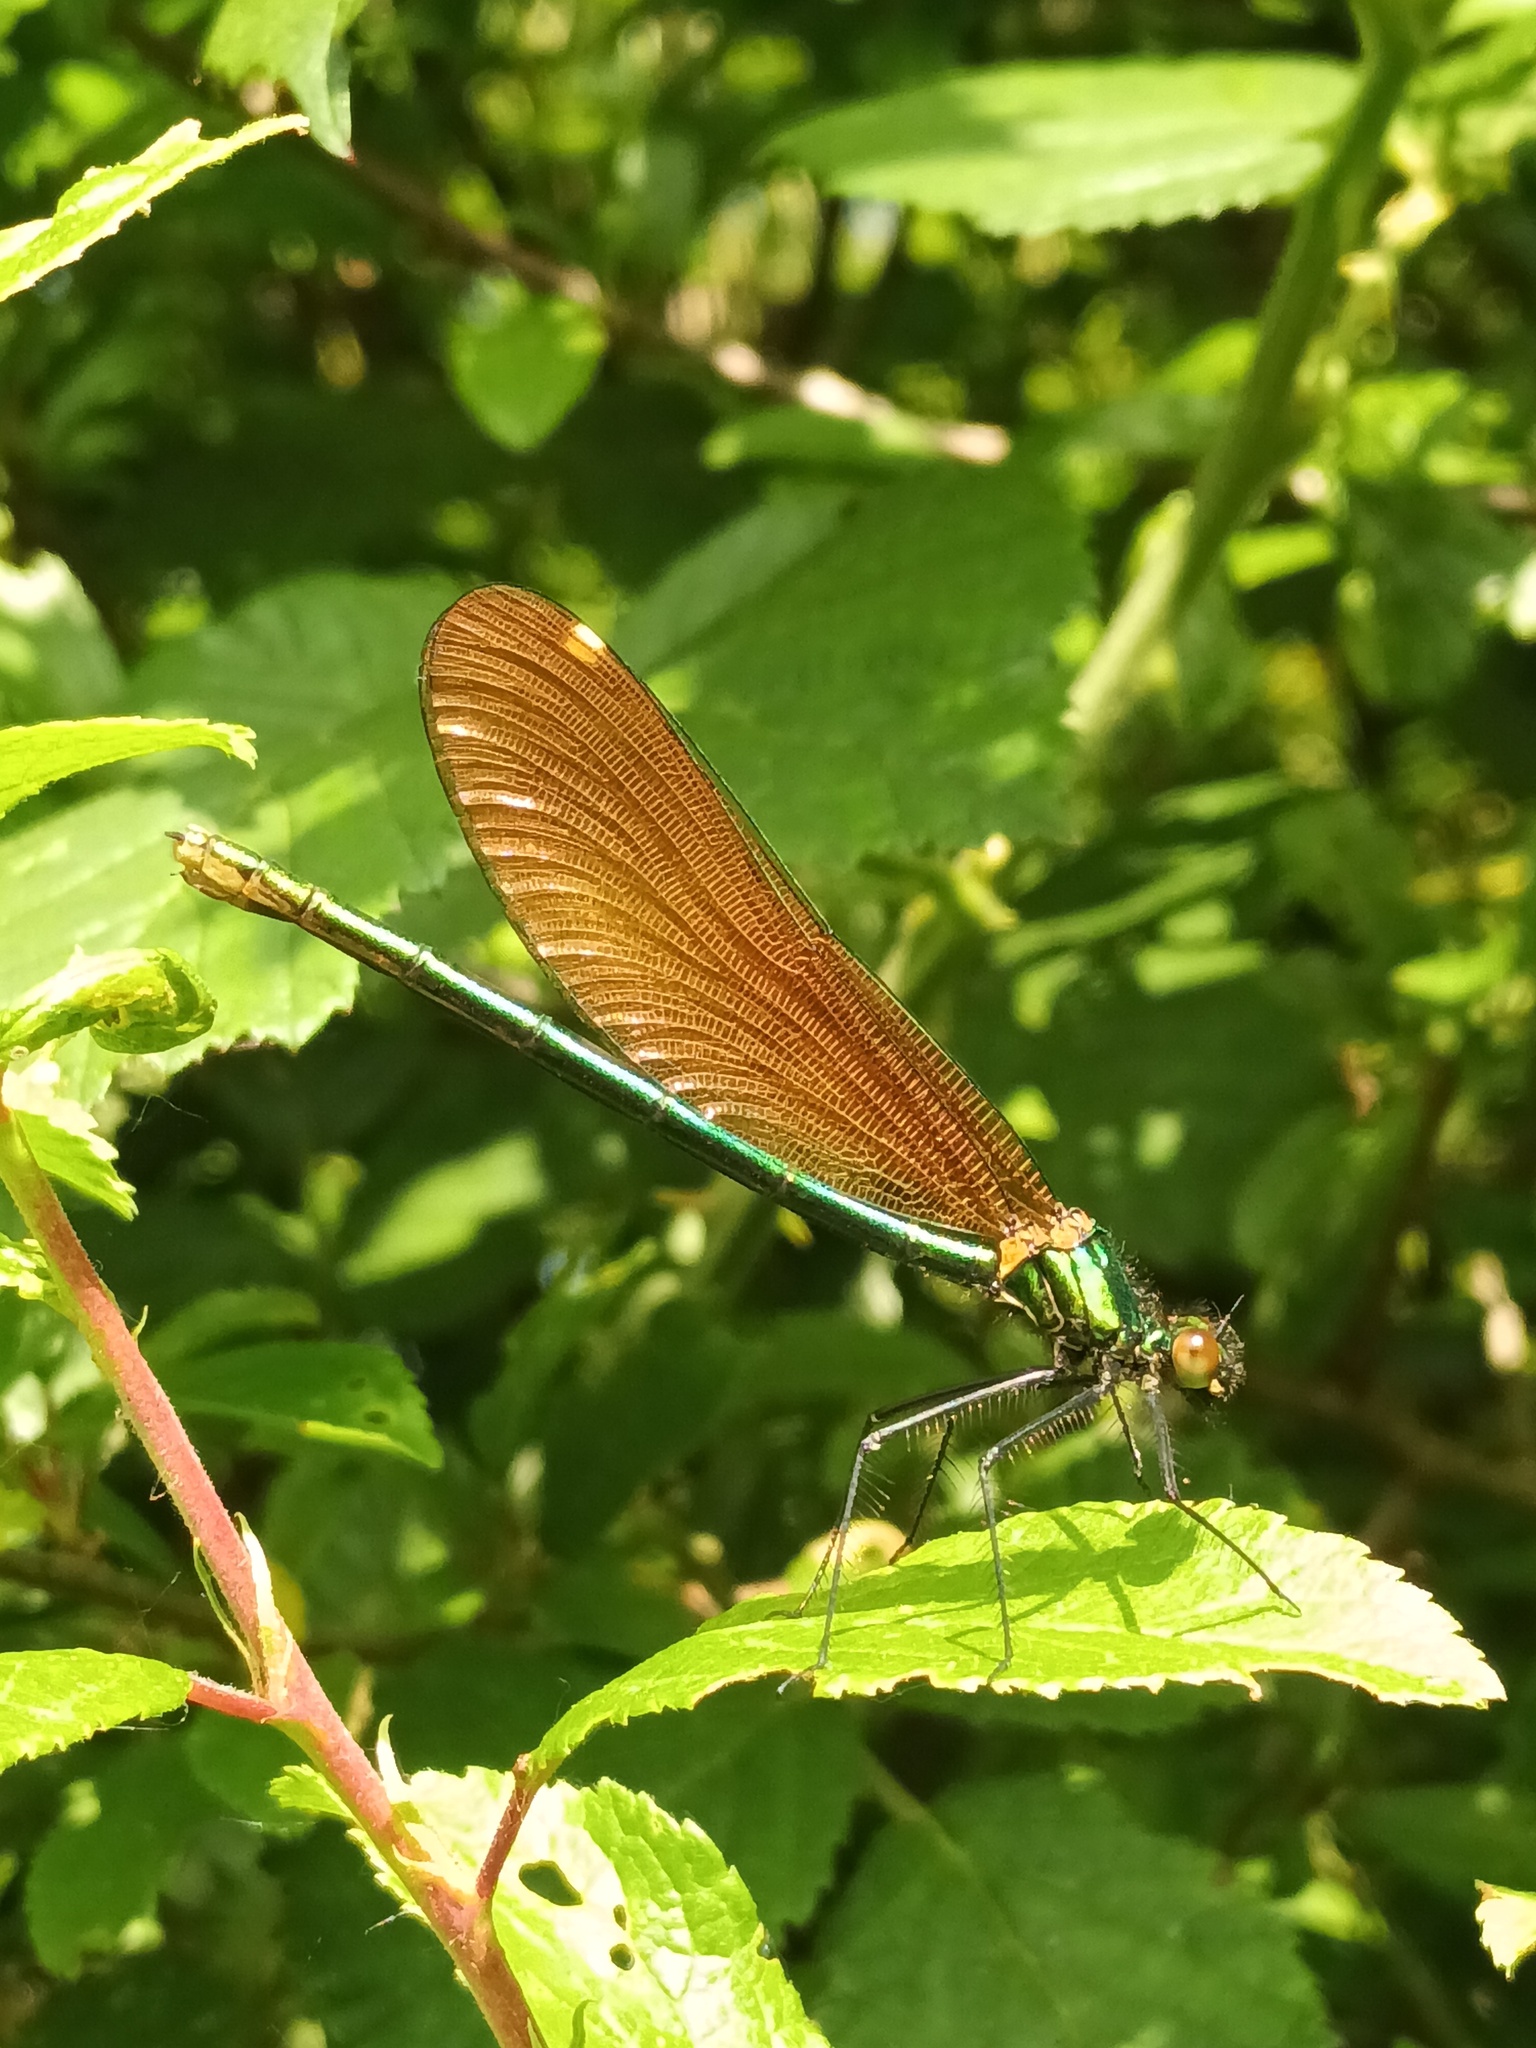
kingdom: Animalia
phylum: Arthropoda
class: Insecta
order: Odonata
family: Calopterygidae
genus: Calopteryx
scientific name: Calopteryx virgo
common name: Beautiful demoiselle
